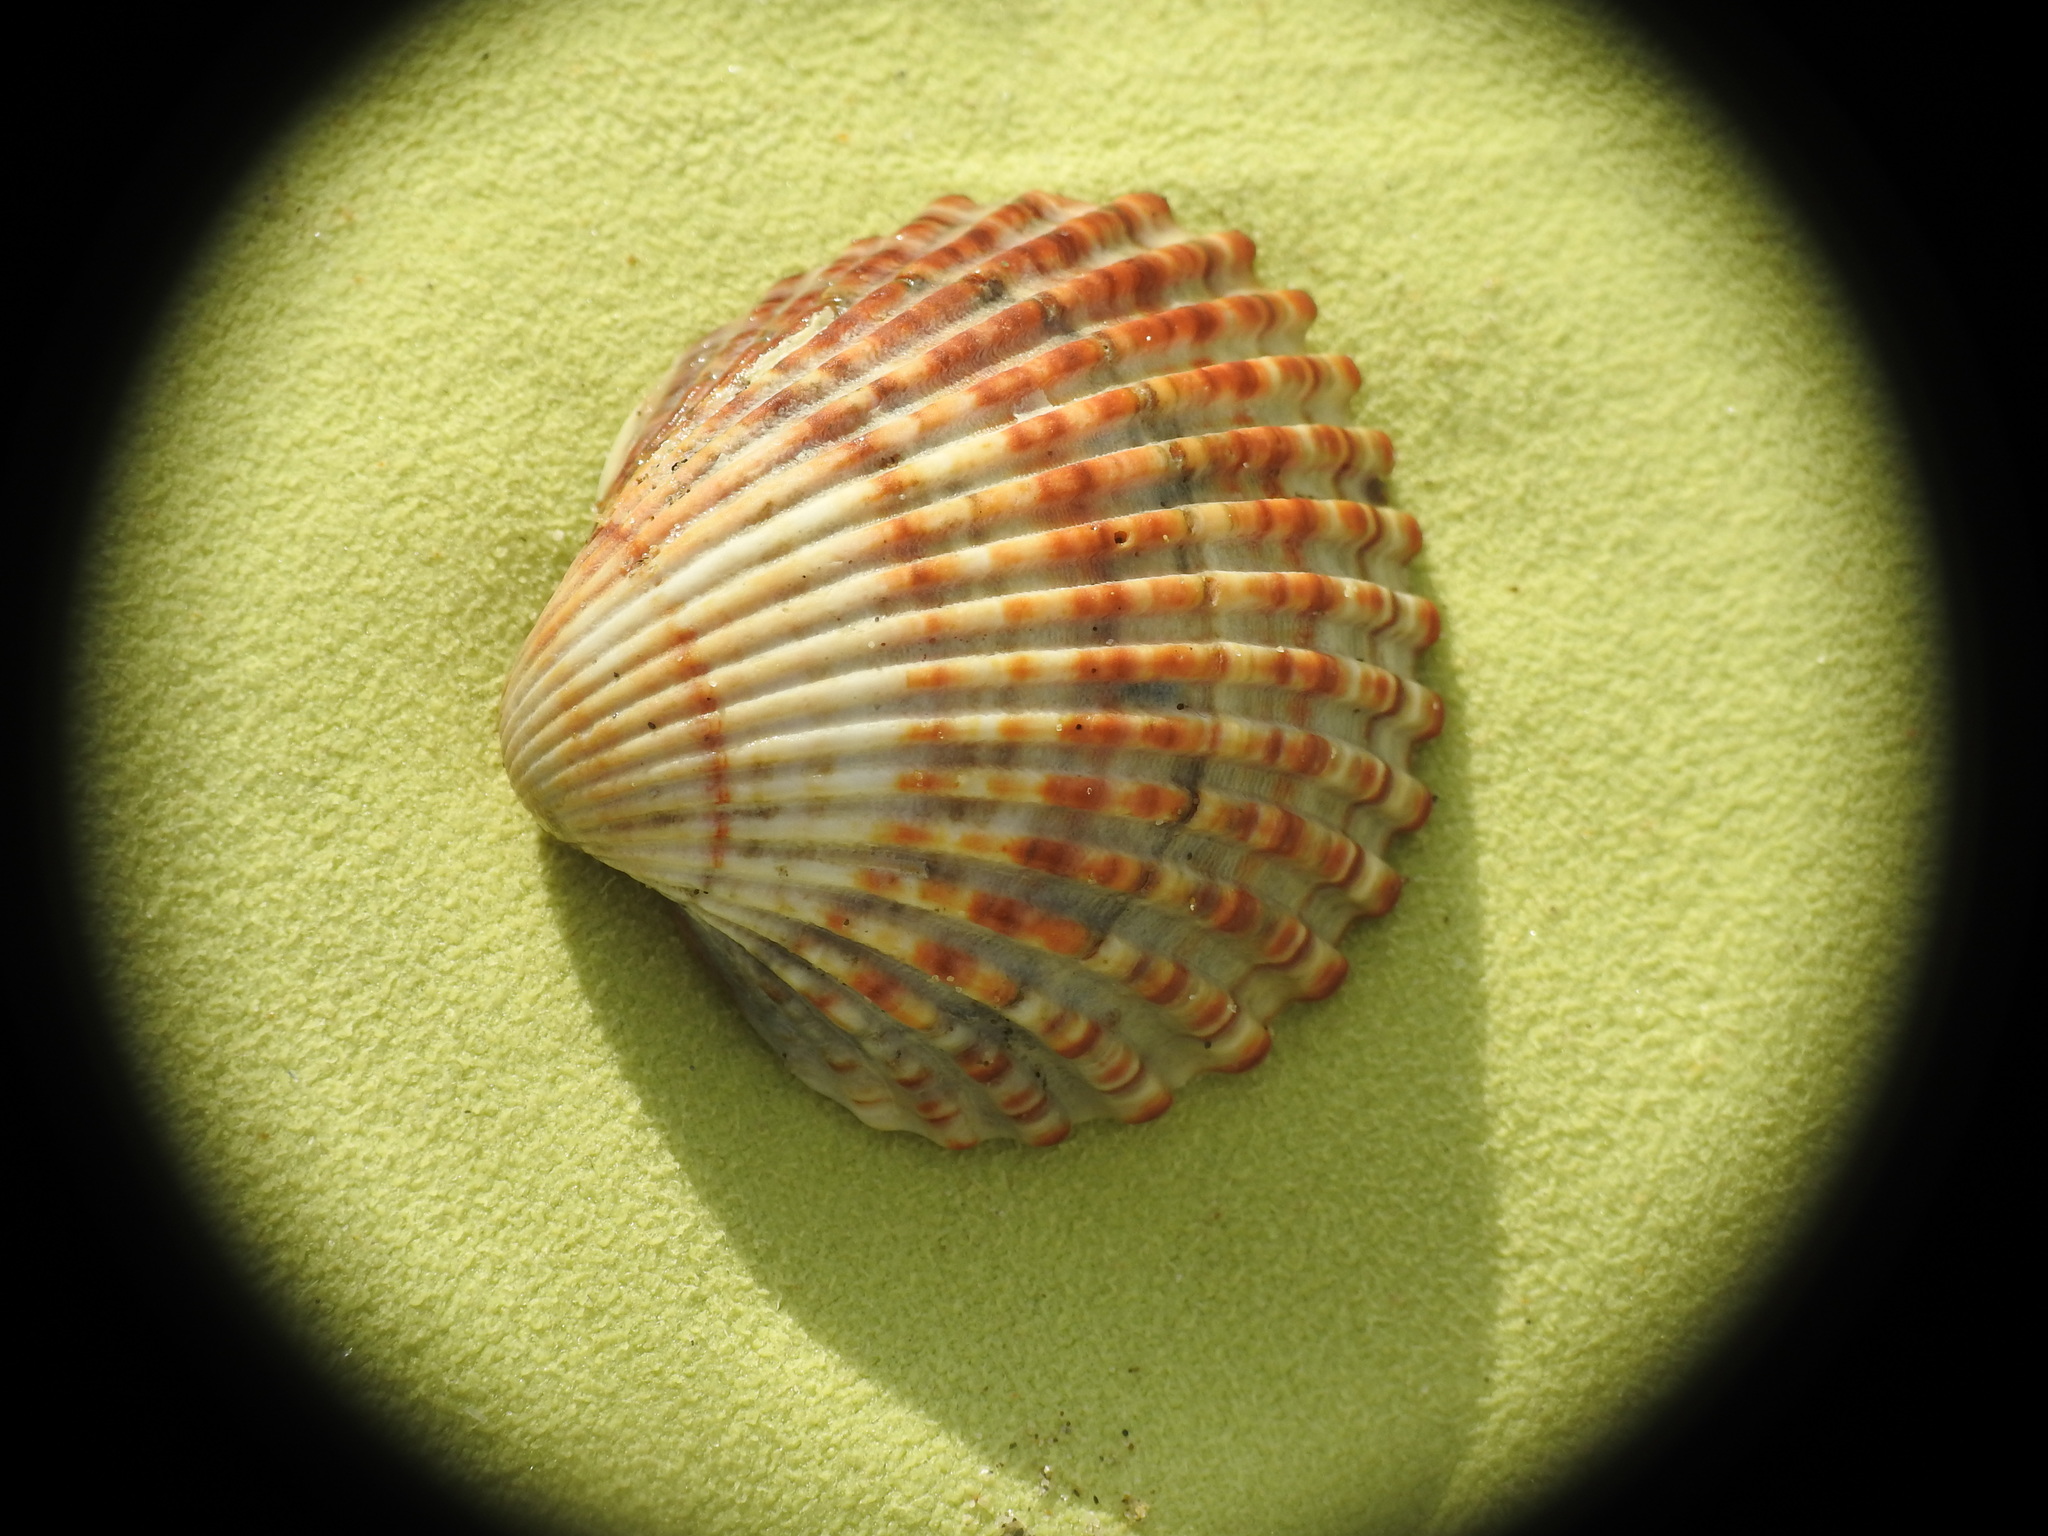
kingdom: Animalia
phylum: Mollusca
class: Bivalvia
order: Cardiida
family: Cardiidae
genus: Acanthocardia
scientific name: Acanthocardia tuberculata
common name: Rough cockle
